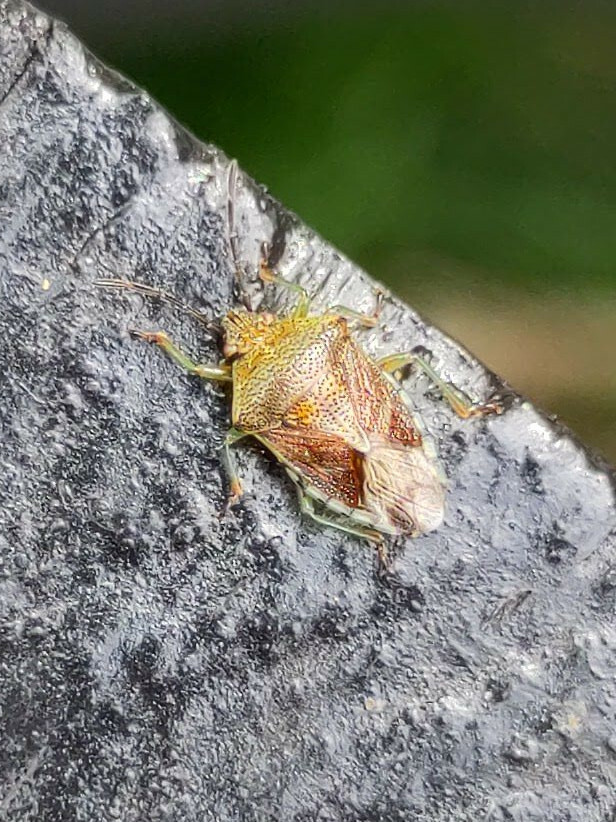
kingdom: Animalia
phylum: Arthropoda
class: Insecta
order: Hemiptera
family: Acanthosomatidae
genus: Elasmucha
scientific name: Elasmucha grisea
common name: Parent bug
